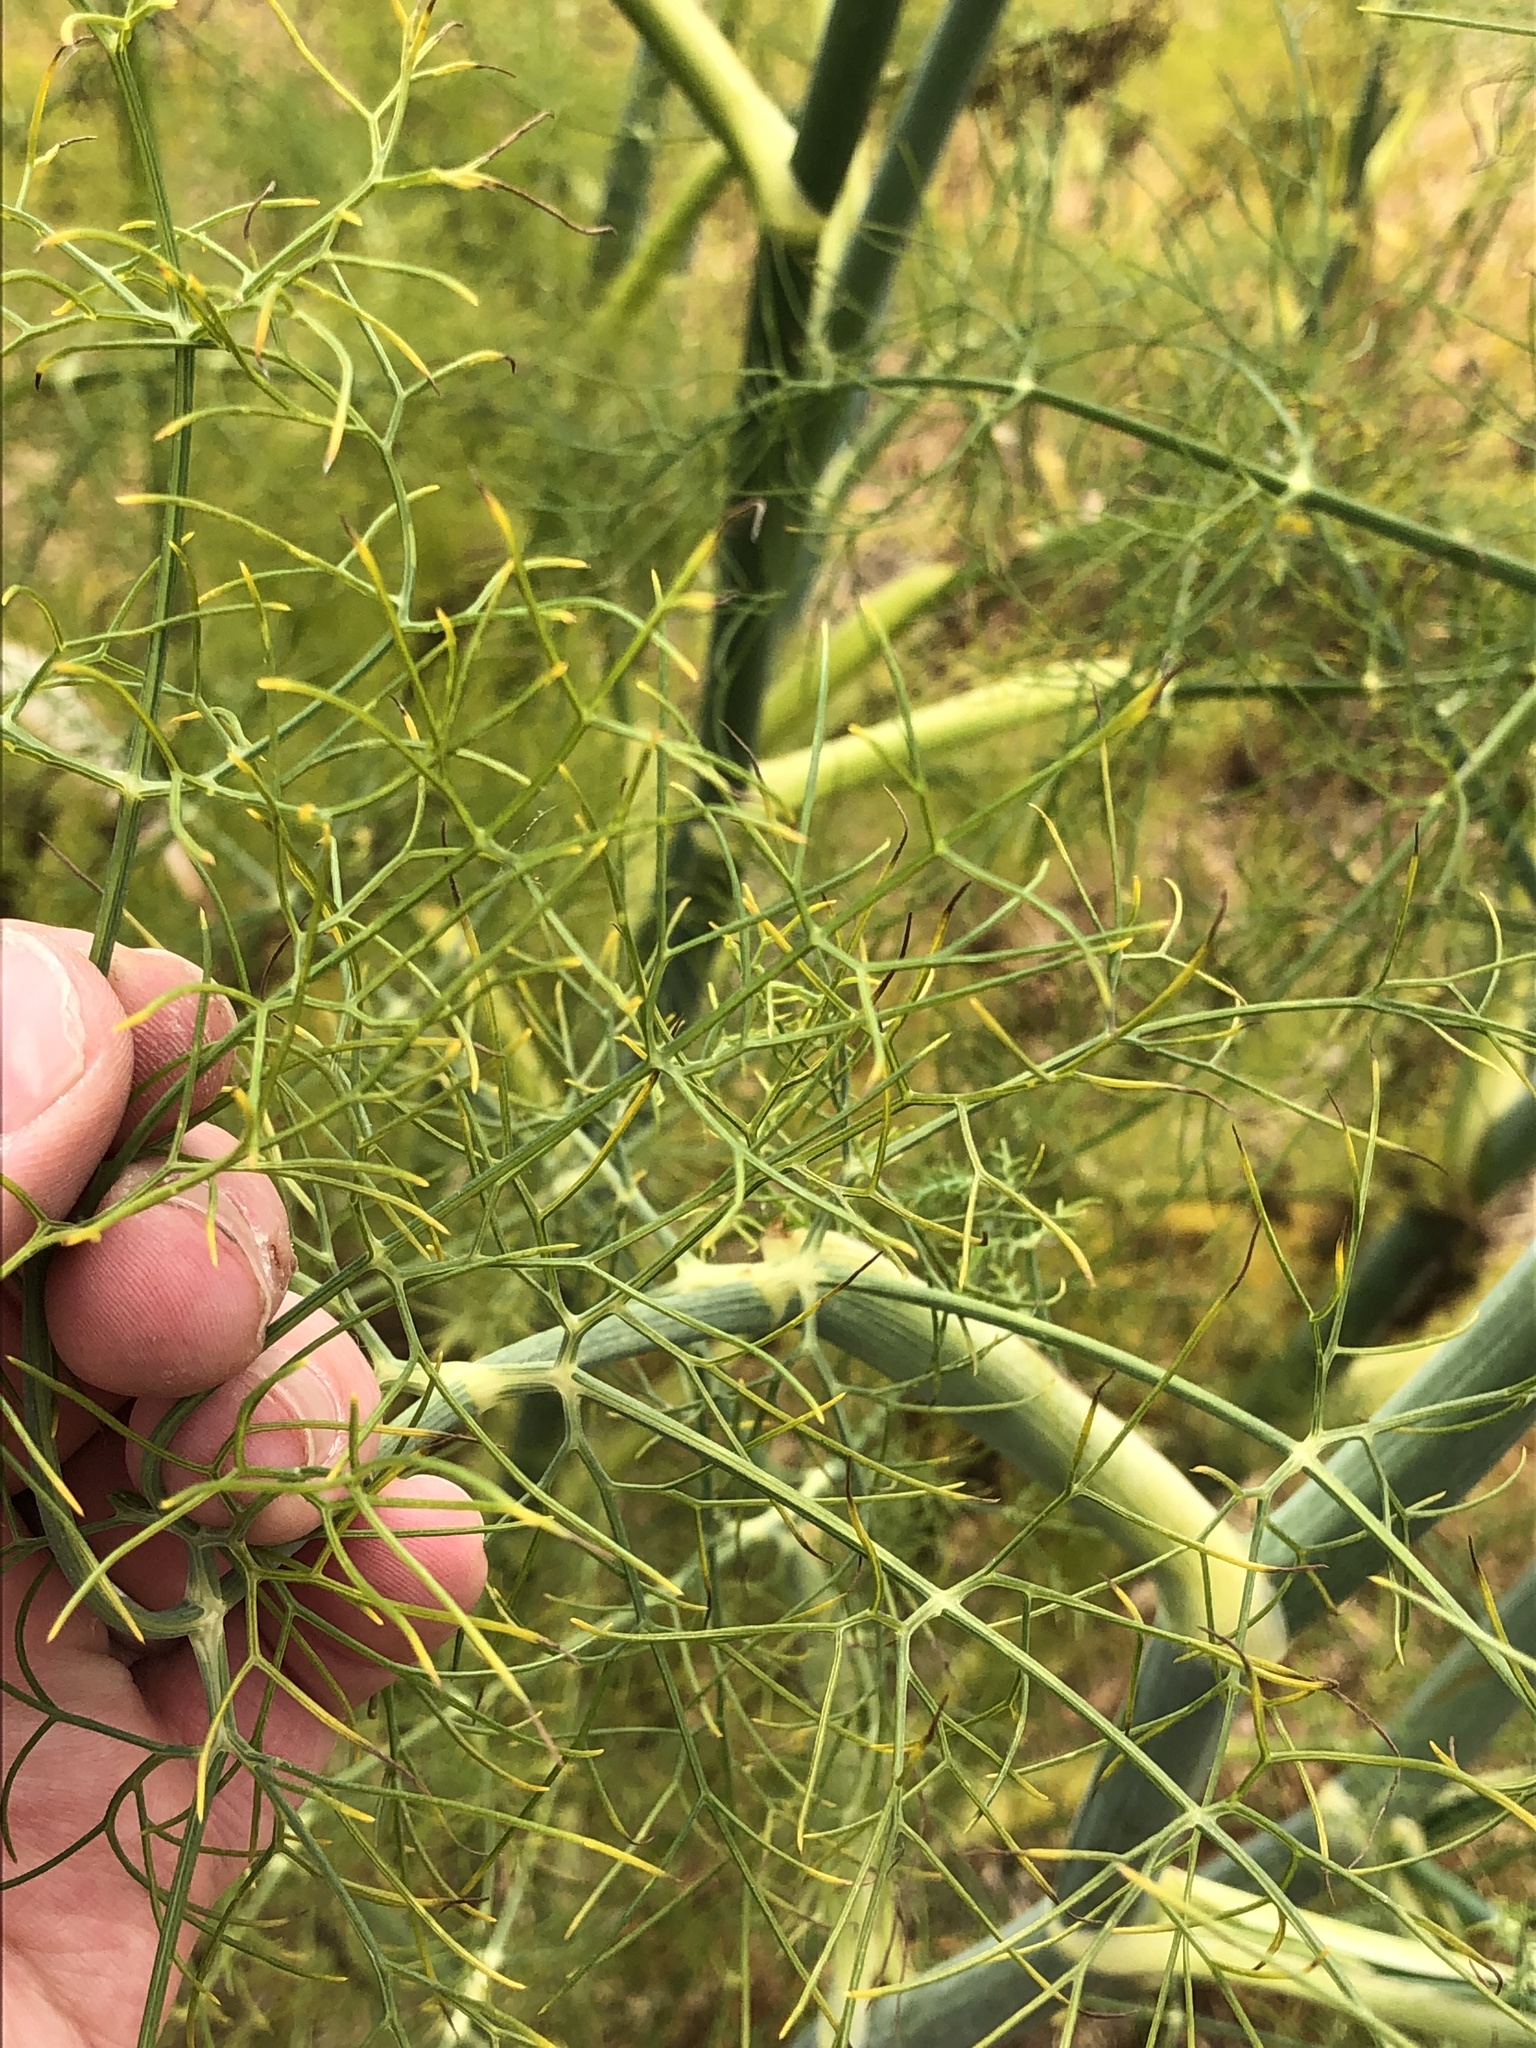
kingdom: Plantae
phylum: Tracheophyta
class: Magnoliopsida
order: Apiales
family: Apiaceae
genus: Foeniculum
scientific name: Foeniculum vulgare
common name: Fennel
